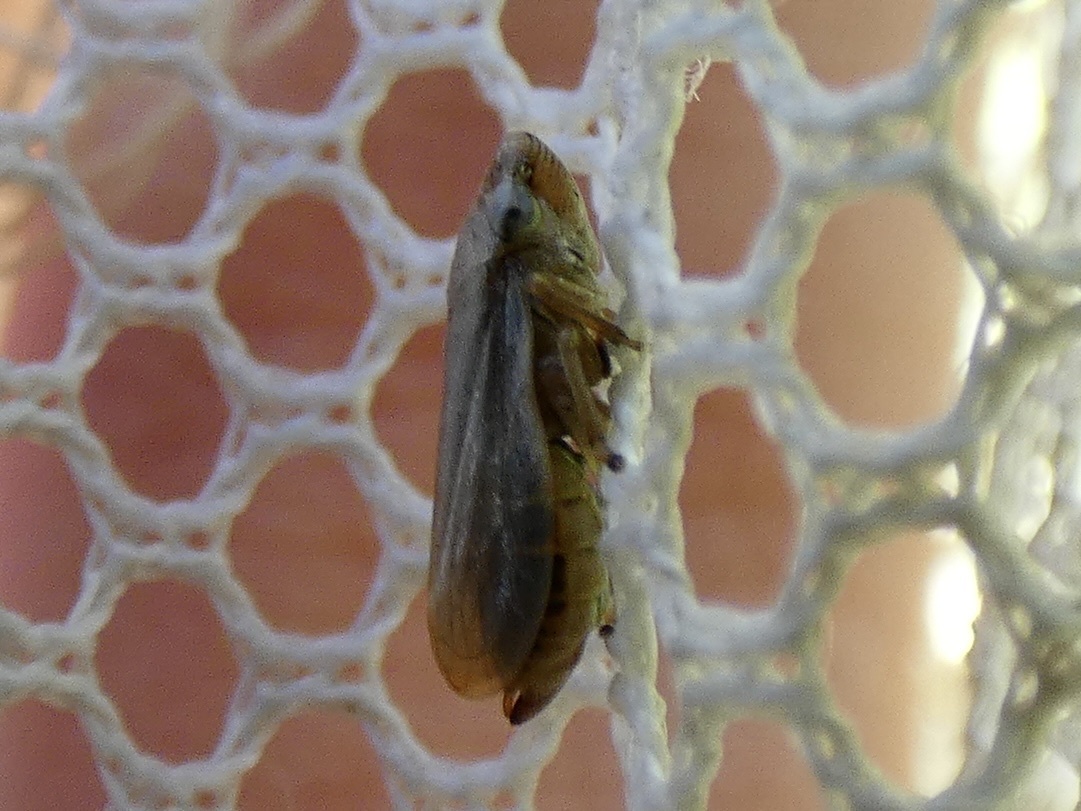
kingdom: Animalia
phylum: Arthropoda
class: Insecta
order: Hemiptera
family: Aphrophoridae
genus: Philaenus
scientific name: Philaenus spumarius
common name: Meadow spittlebug
